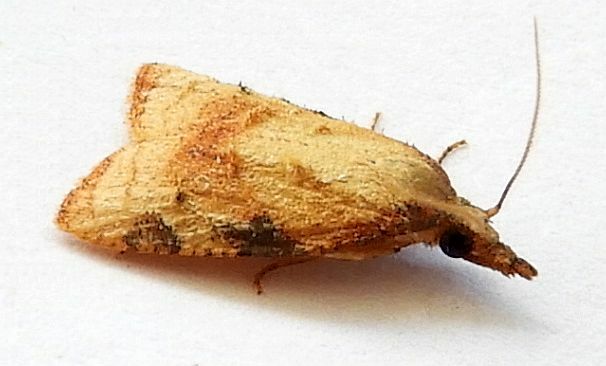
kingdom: Animalia
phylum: Arthropoda
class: Insecta
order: Lepidoptera
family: Tortricidae
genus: Platynota
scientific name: Platynota labiosana
